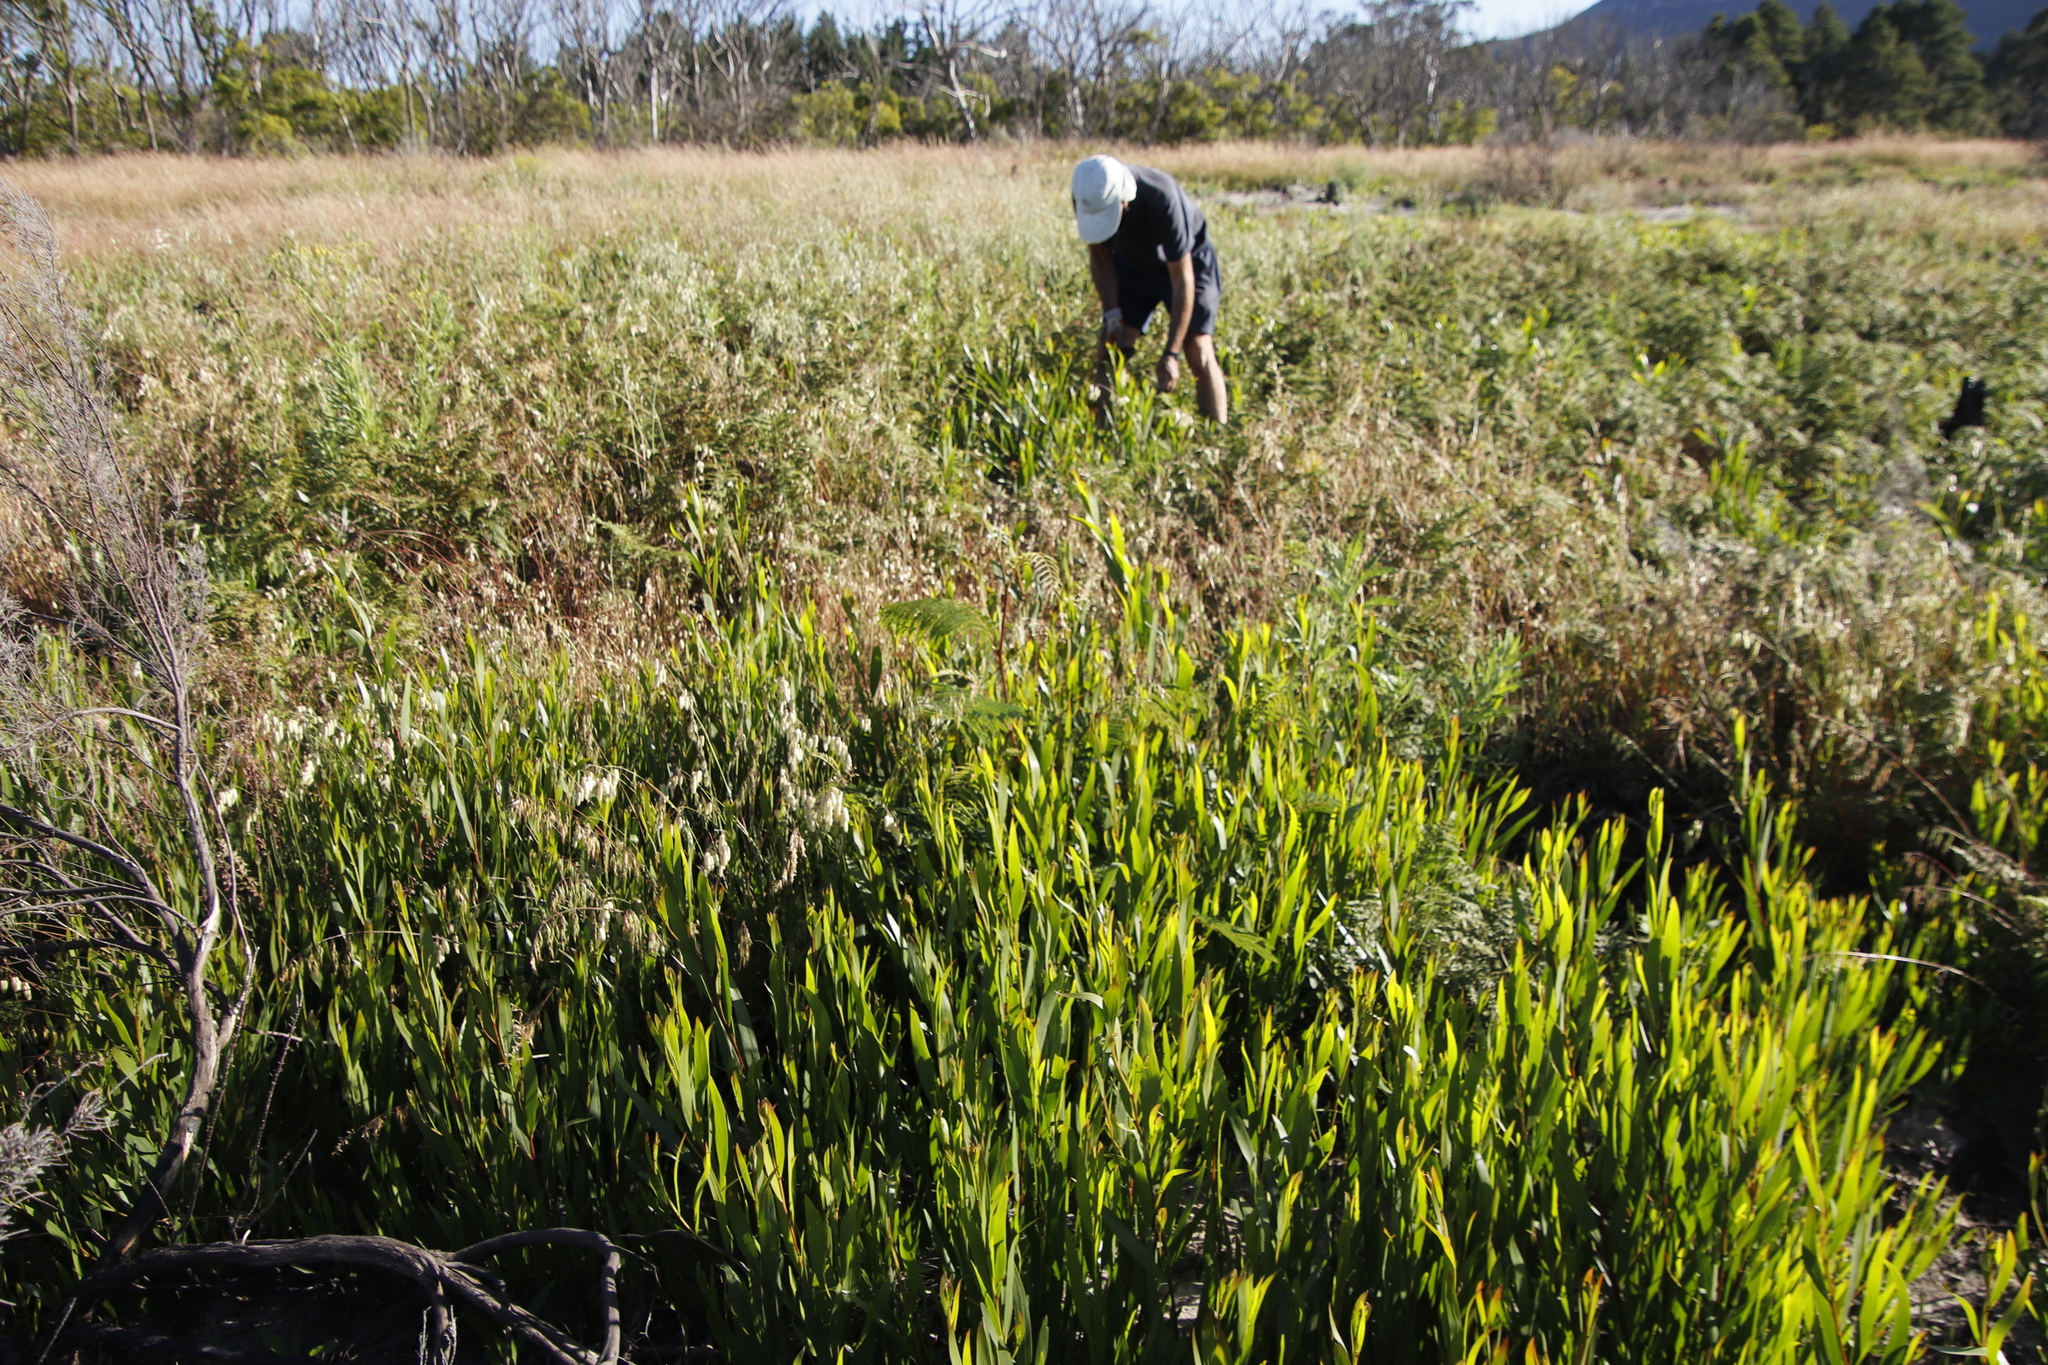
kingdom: Plantae
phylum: Tracheophyta
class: Magnoliopsida
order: Fabales
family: Fabaceae
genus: Acacia
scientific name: Acacia longifolia
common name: Sydney golden wattle
